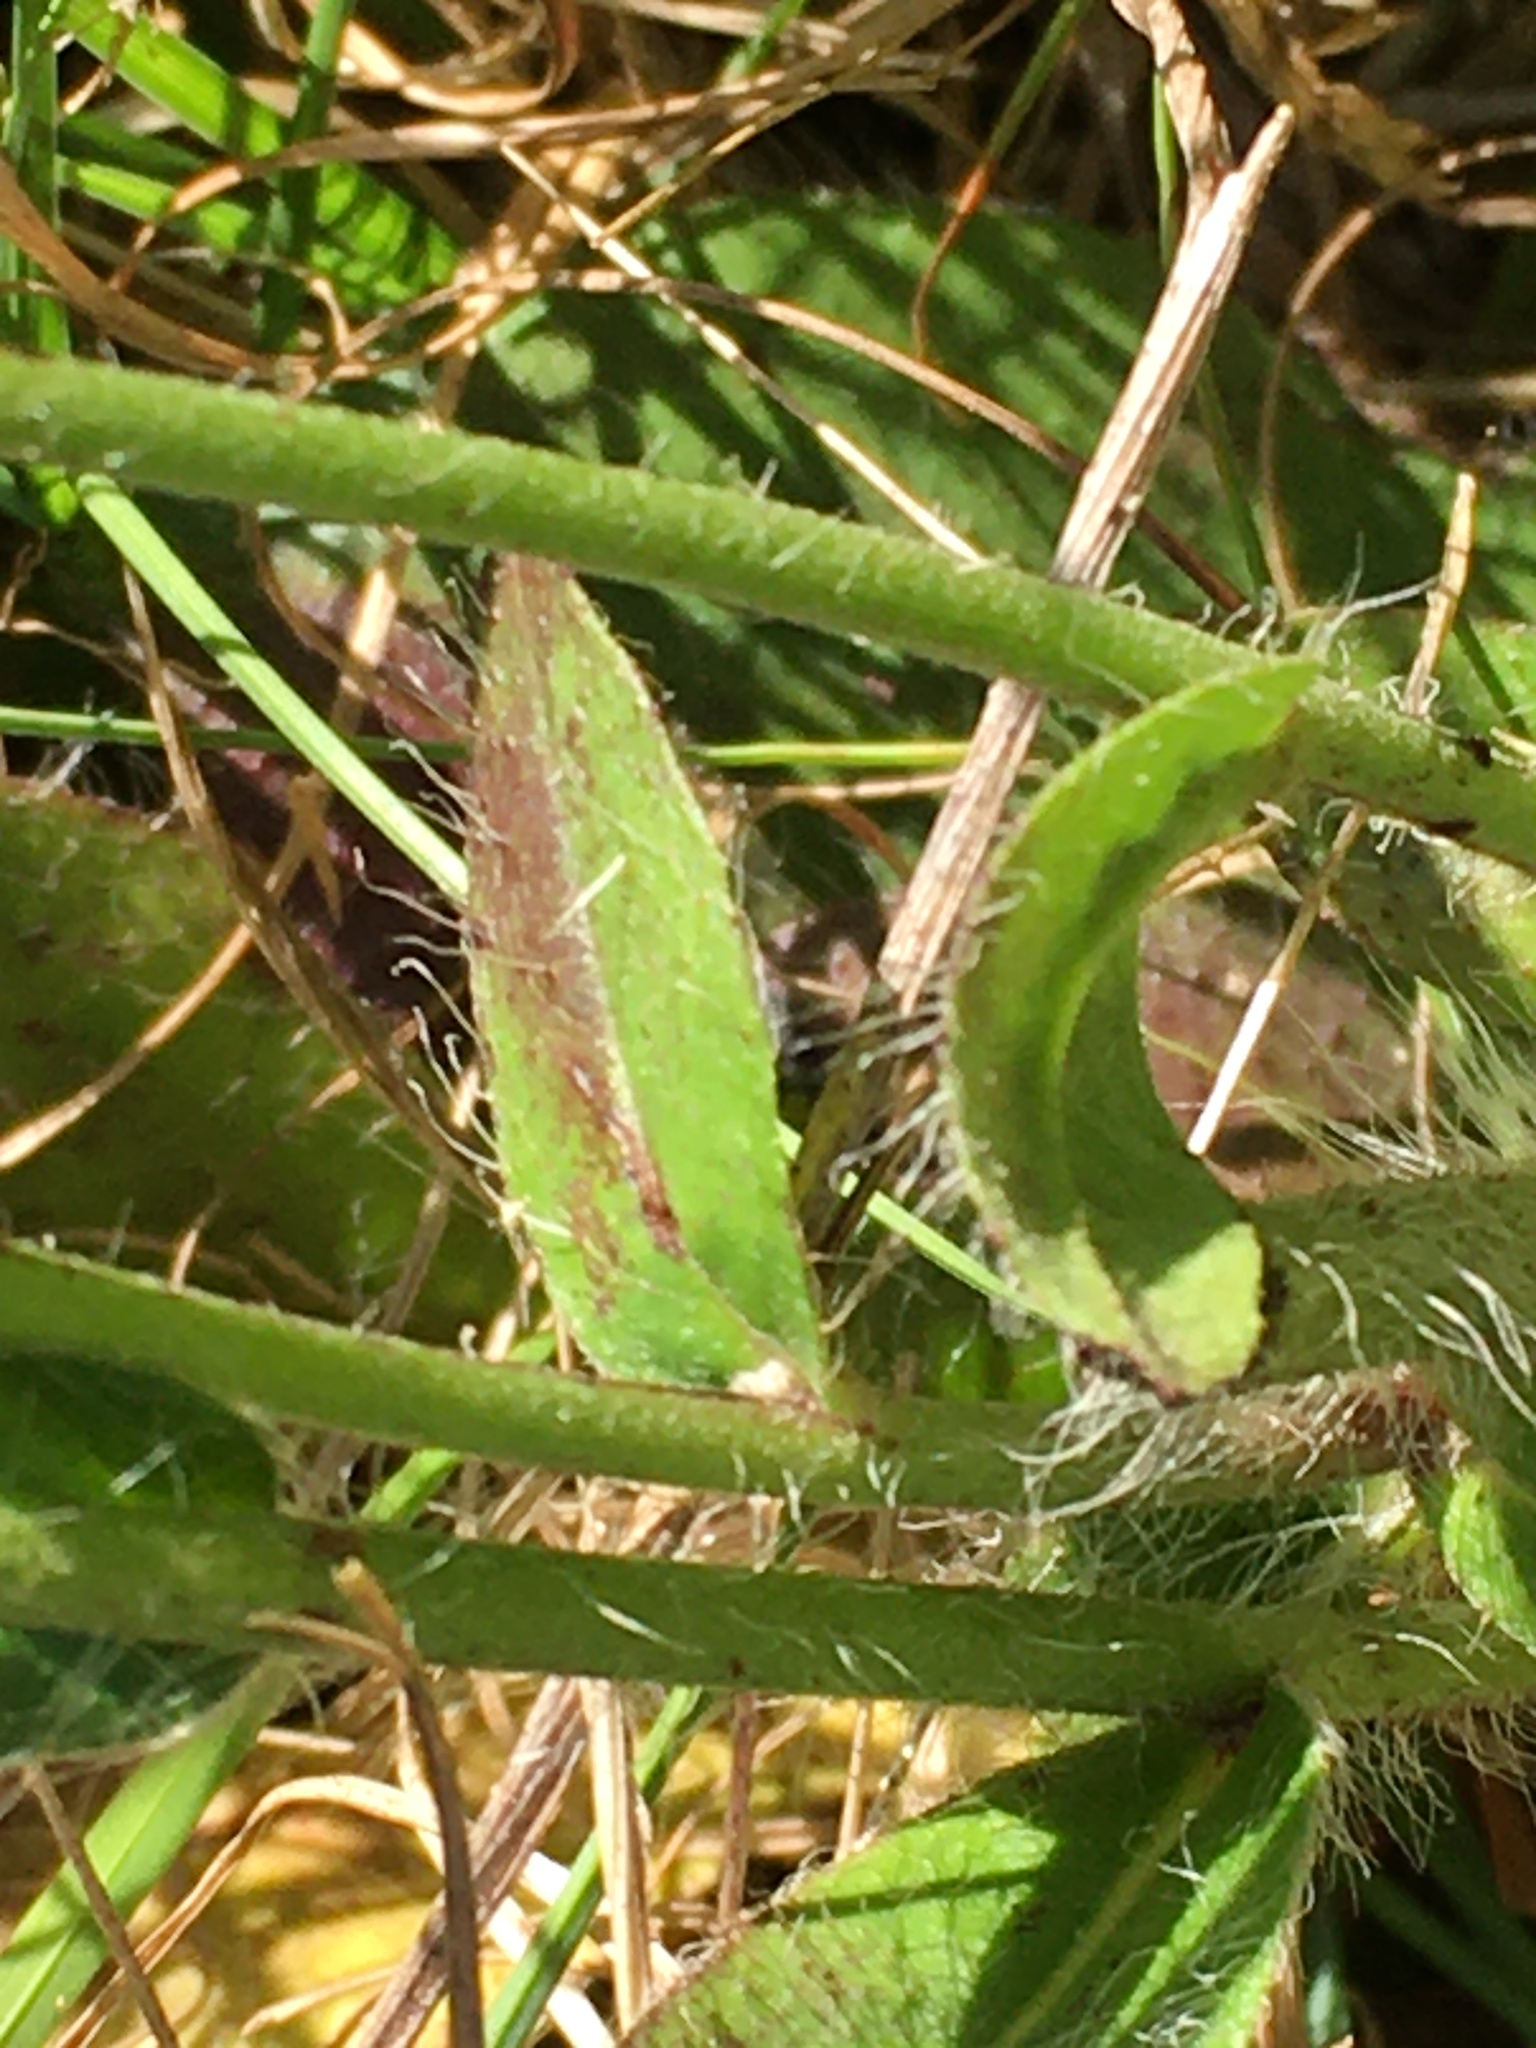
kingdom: Plantae
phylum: Tracheophyta
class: Magnoliopsida
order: Asterales
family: Asteraceae
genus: Hieracium
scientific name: Hieracium gronovii
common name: Beaked hawkweed
